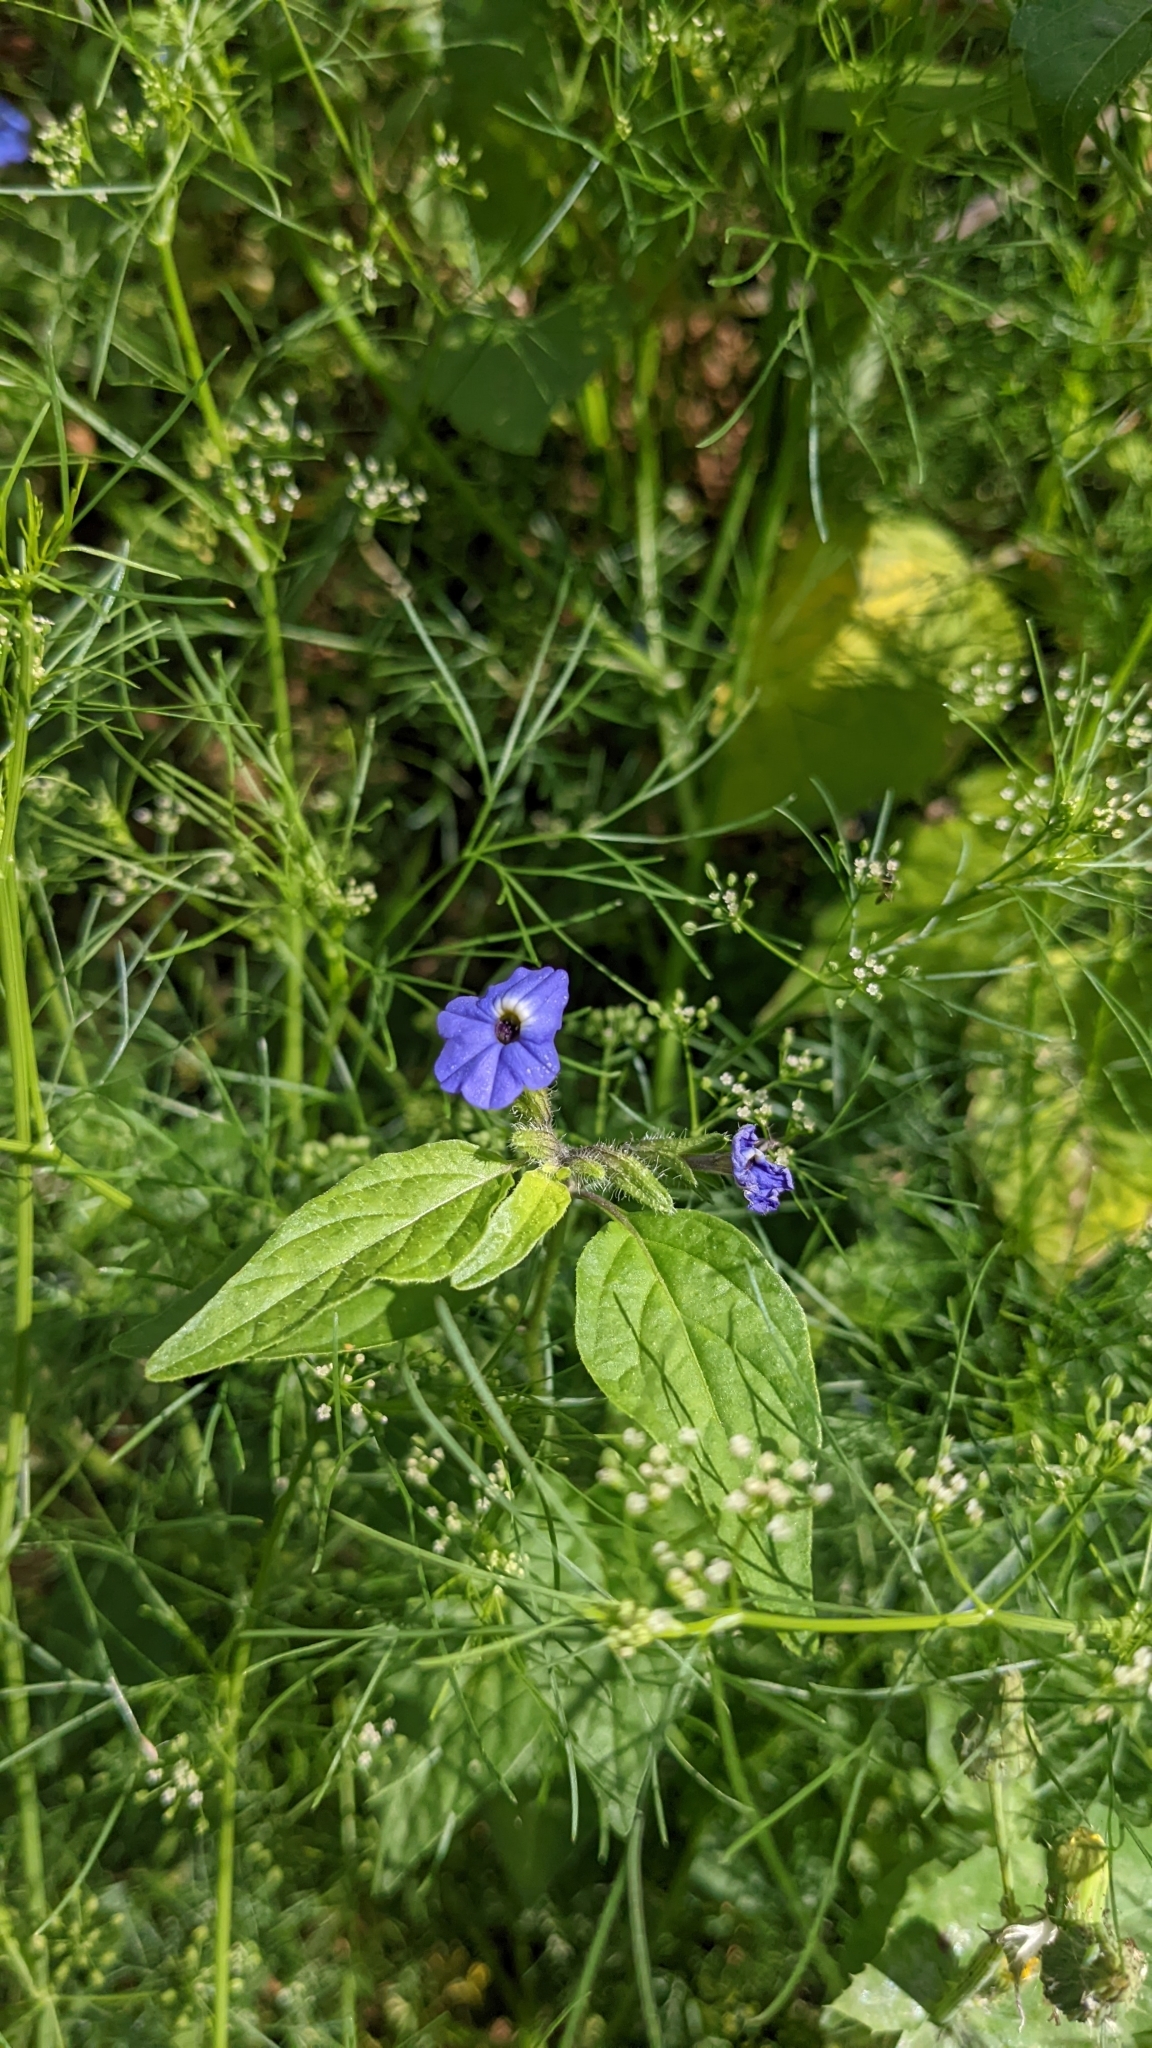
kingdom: Plantae
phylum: Tracheophyta
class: Magnoliopsida
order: Solanales
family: Solanaceae
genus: Browallia
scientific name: Browallia americana
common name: Jamaican forget-me-not
